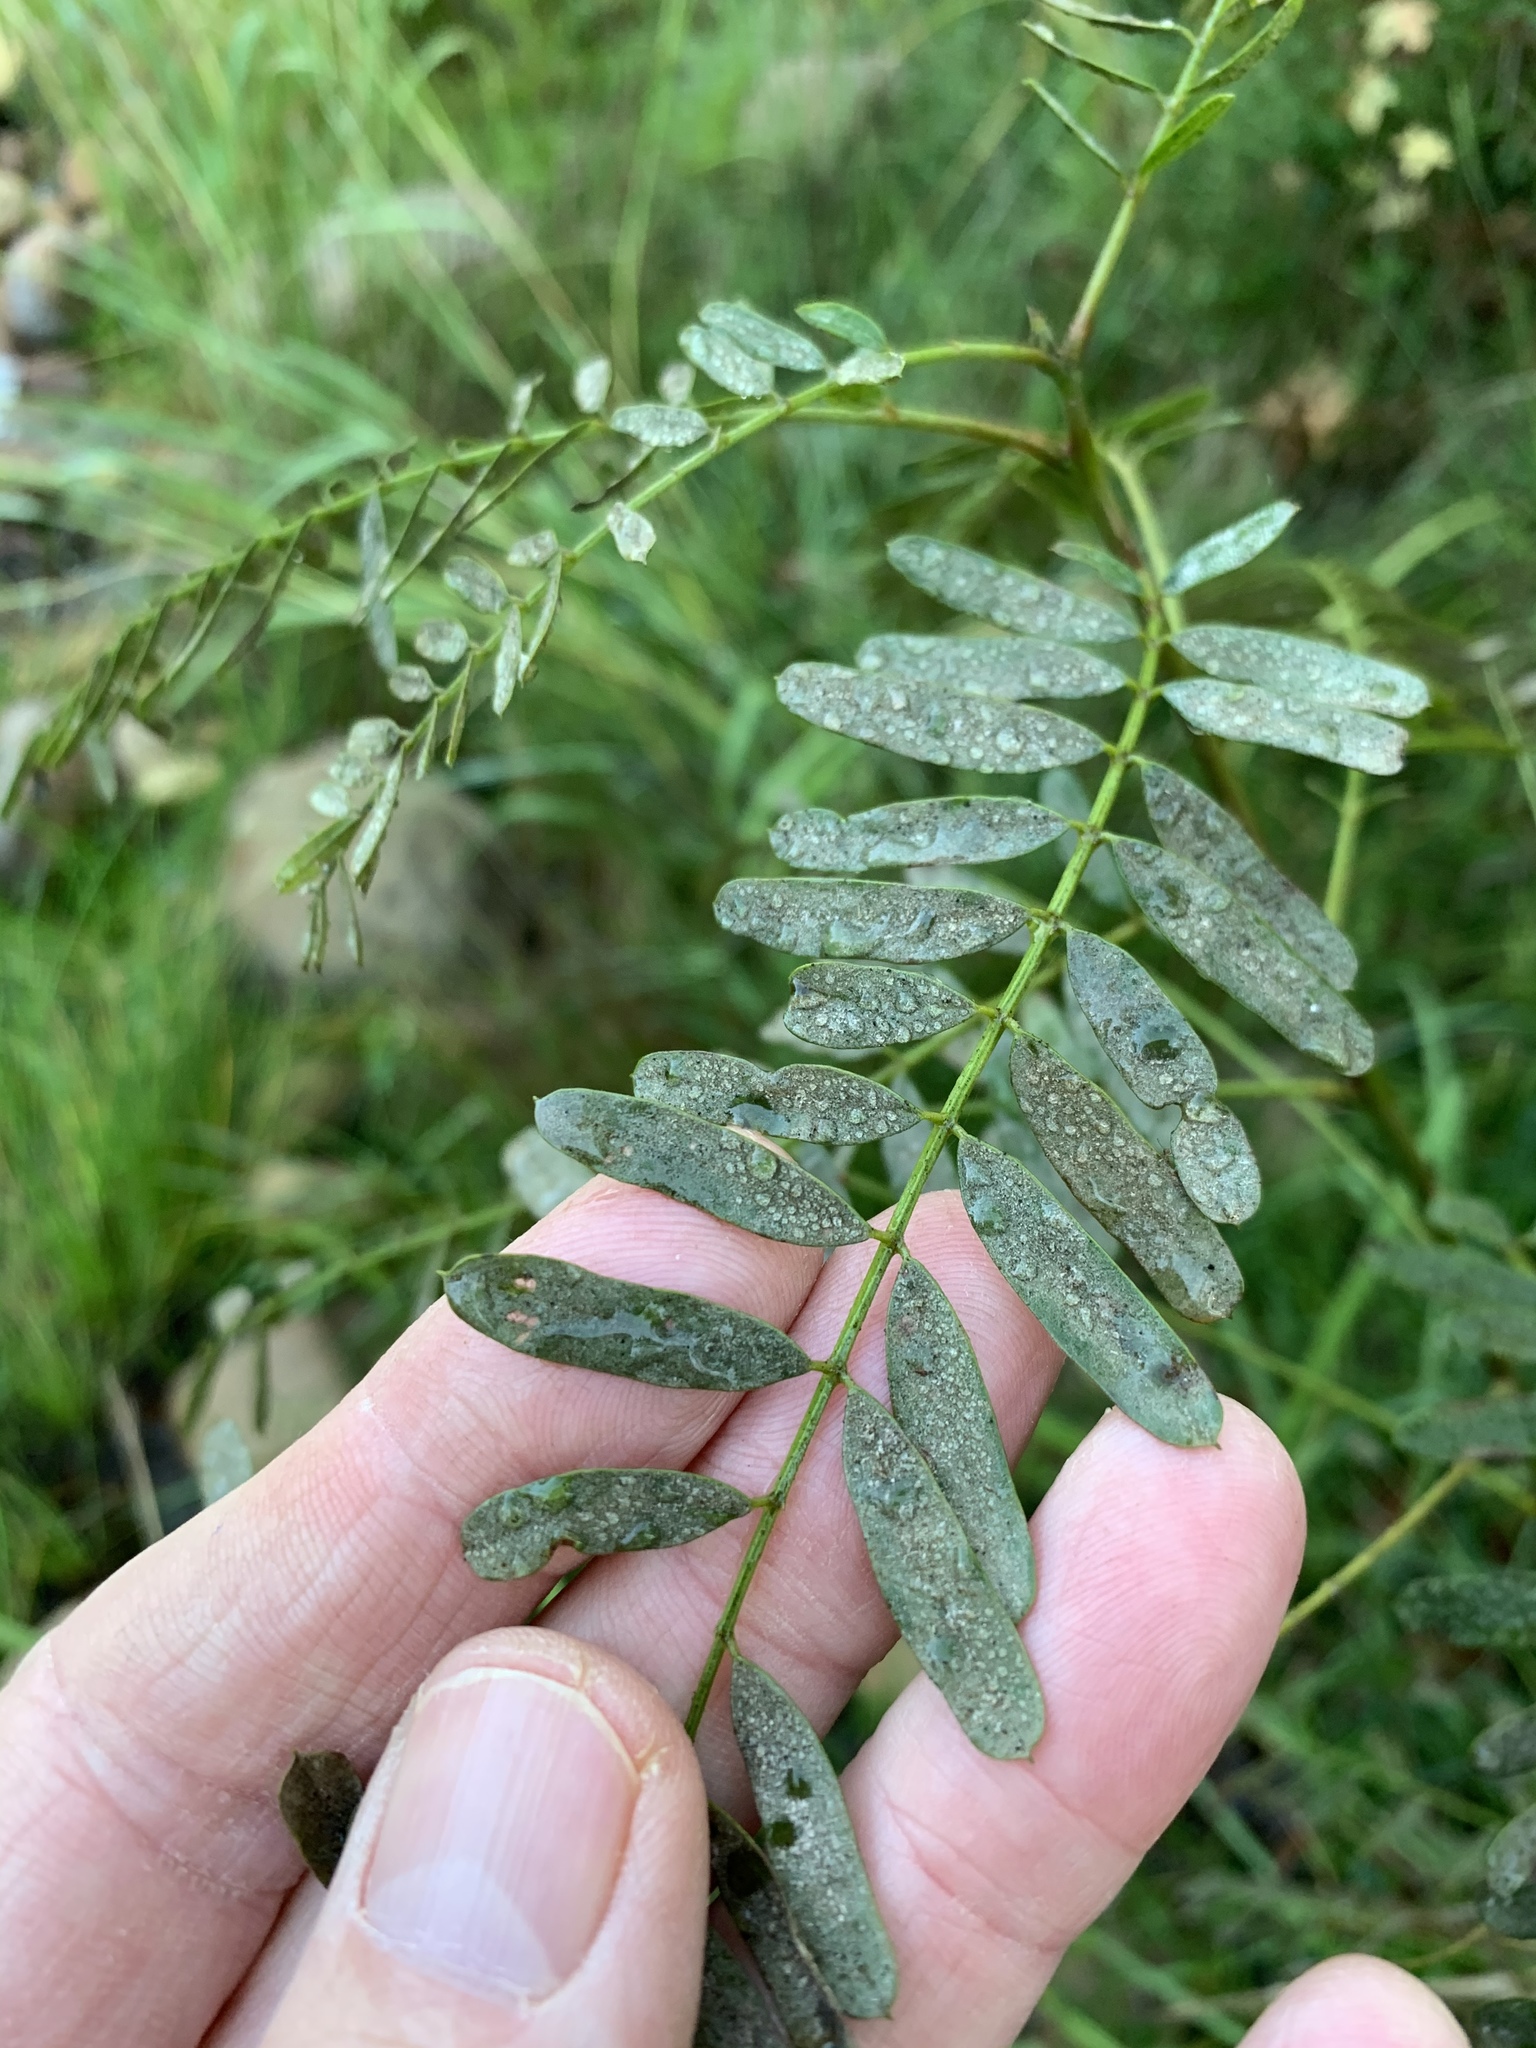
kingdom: Plantae
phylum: Tracheophyta
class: Magnoliopsida
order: Fabales
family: Fabaceae
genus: Sesbania
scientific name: Sesbania punicea
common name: Rattlebox
